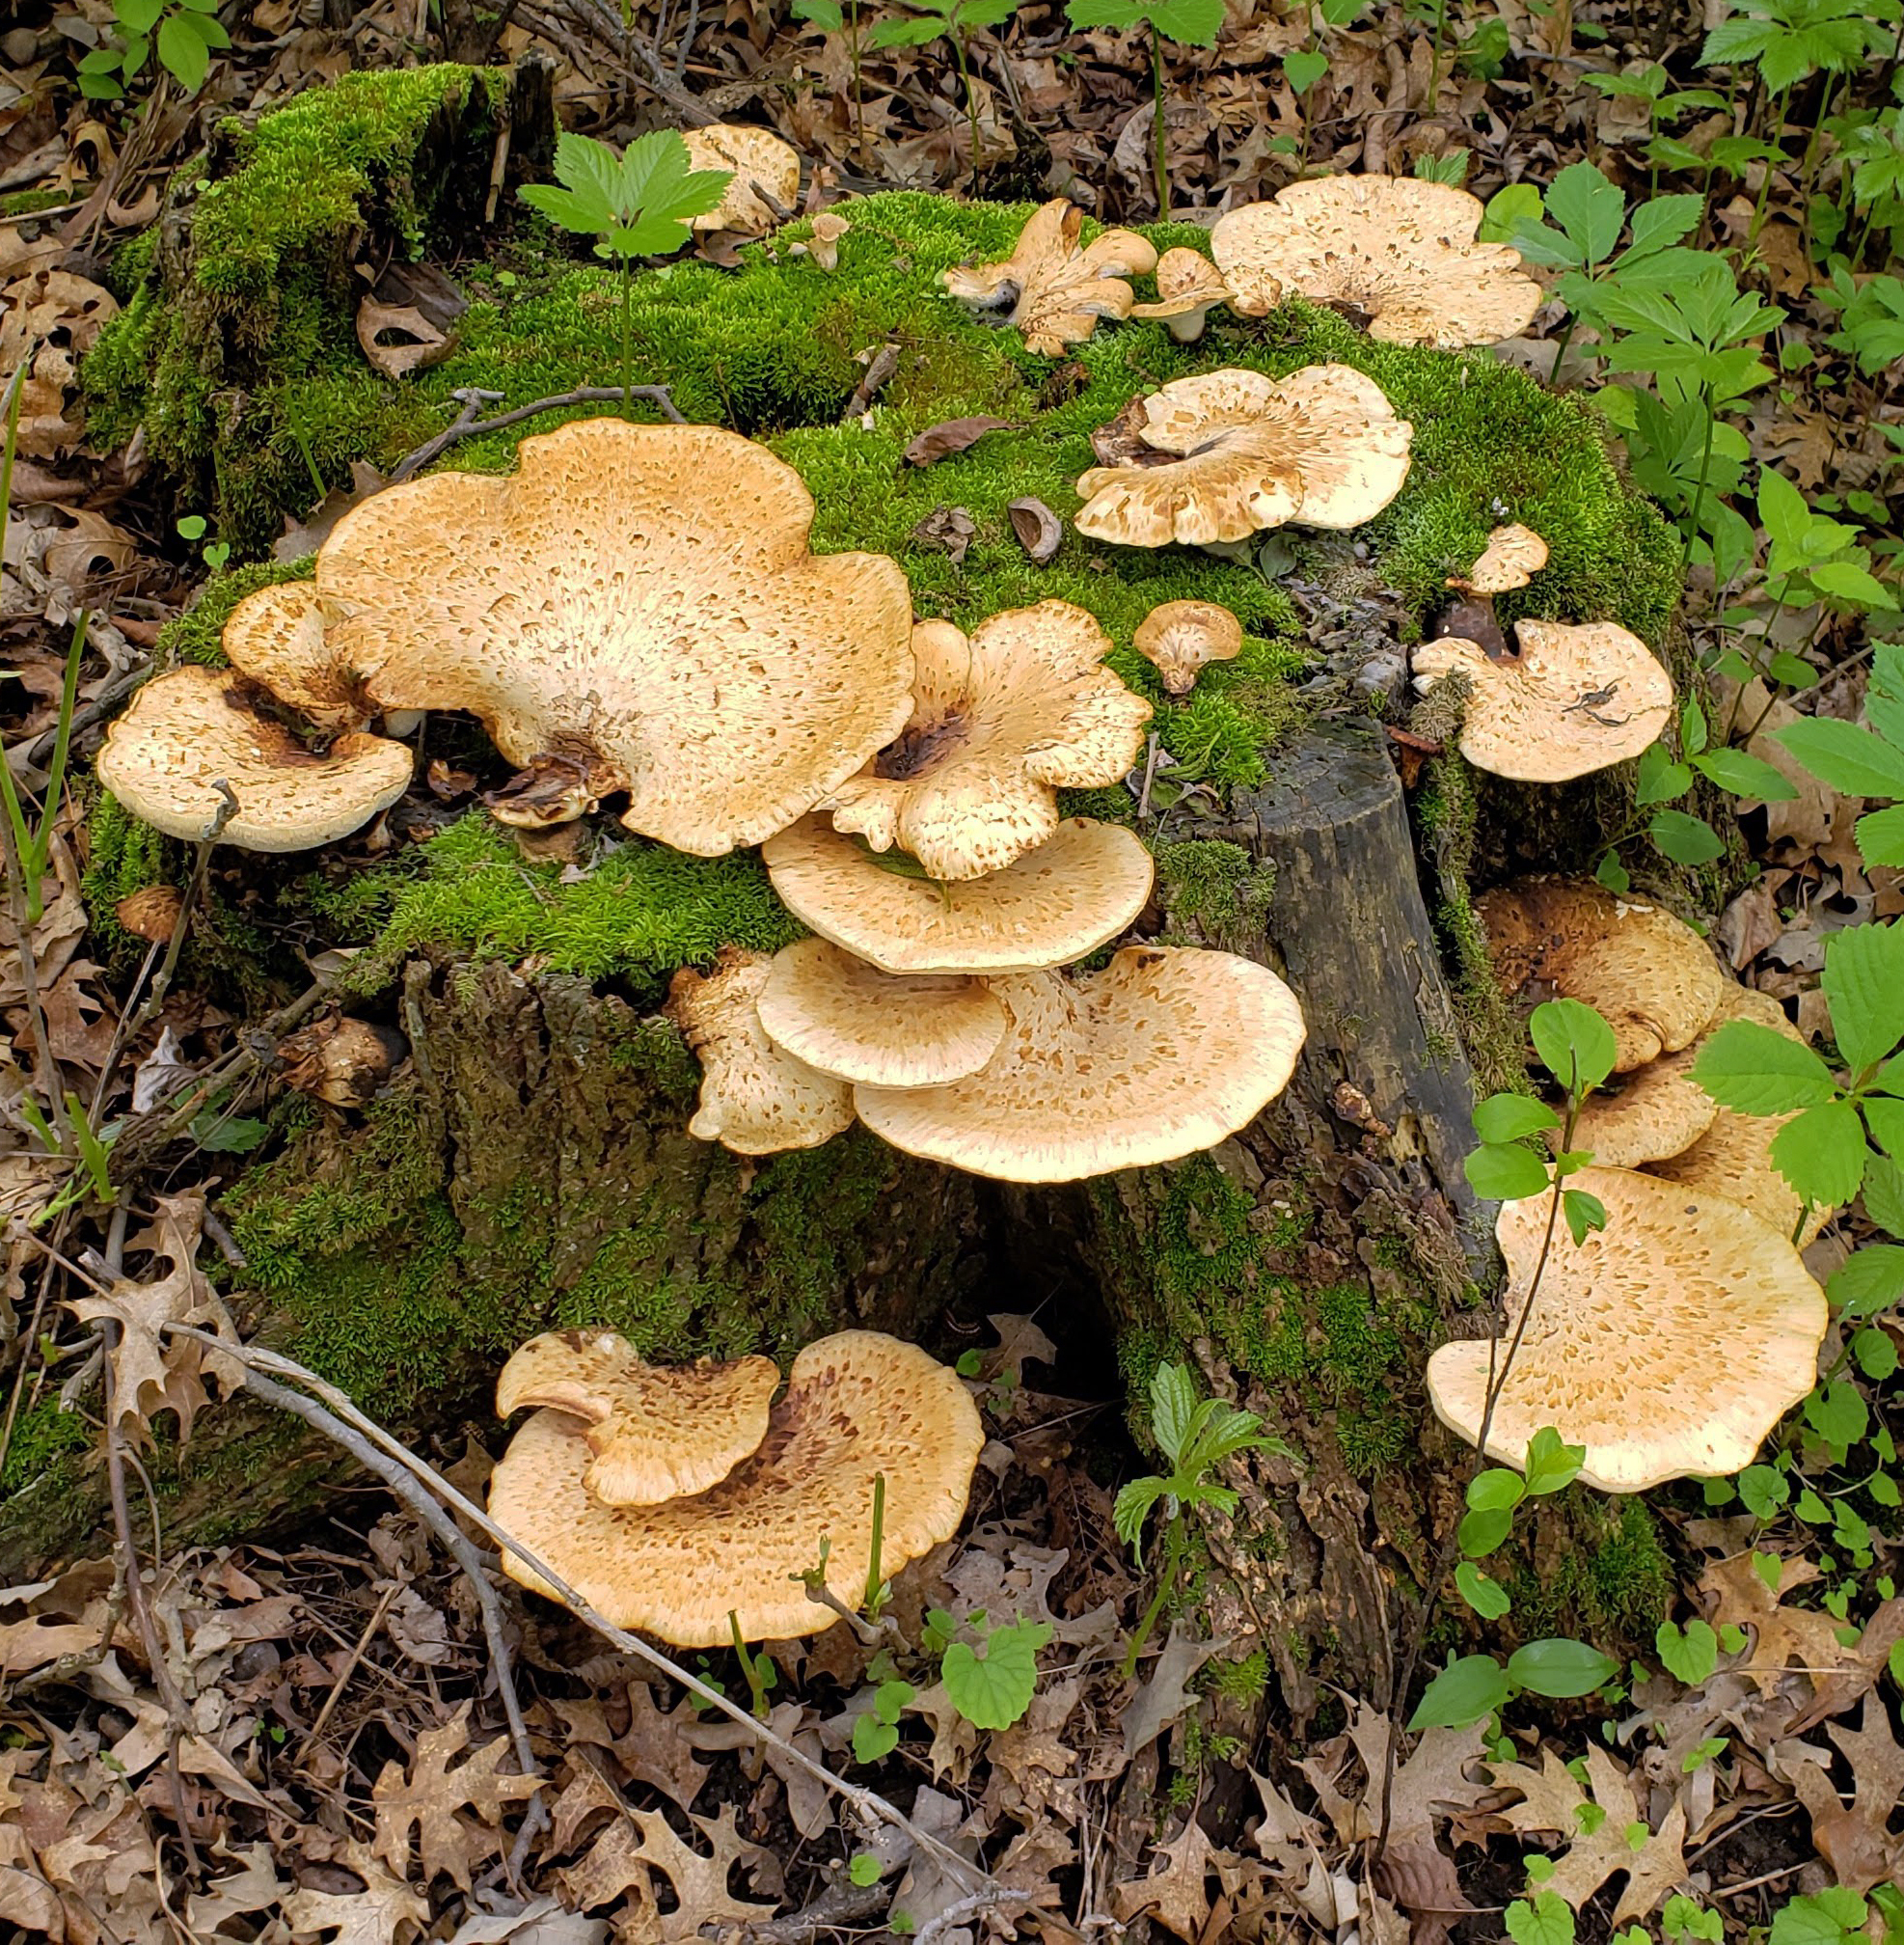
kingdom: Fungi
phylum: Basidiomycota
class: Agaricomycetes
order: Polyporales
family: Polyporaceae
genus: Cerioporus
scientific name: Cerioporus squamosus
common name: Dryad's saddle
